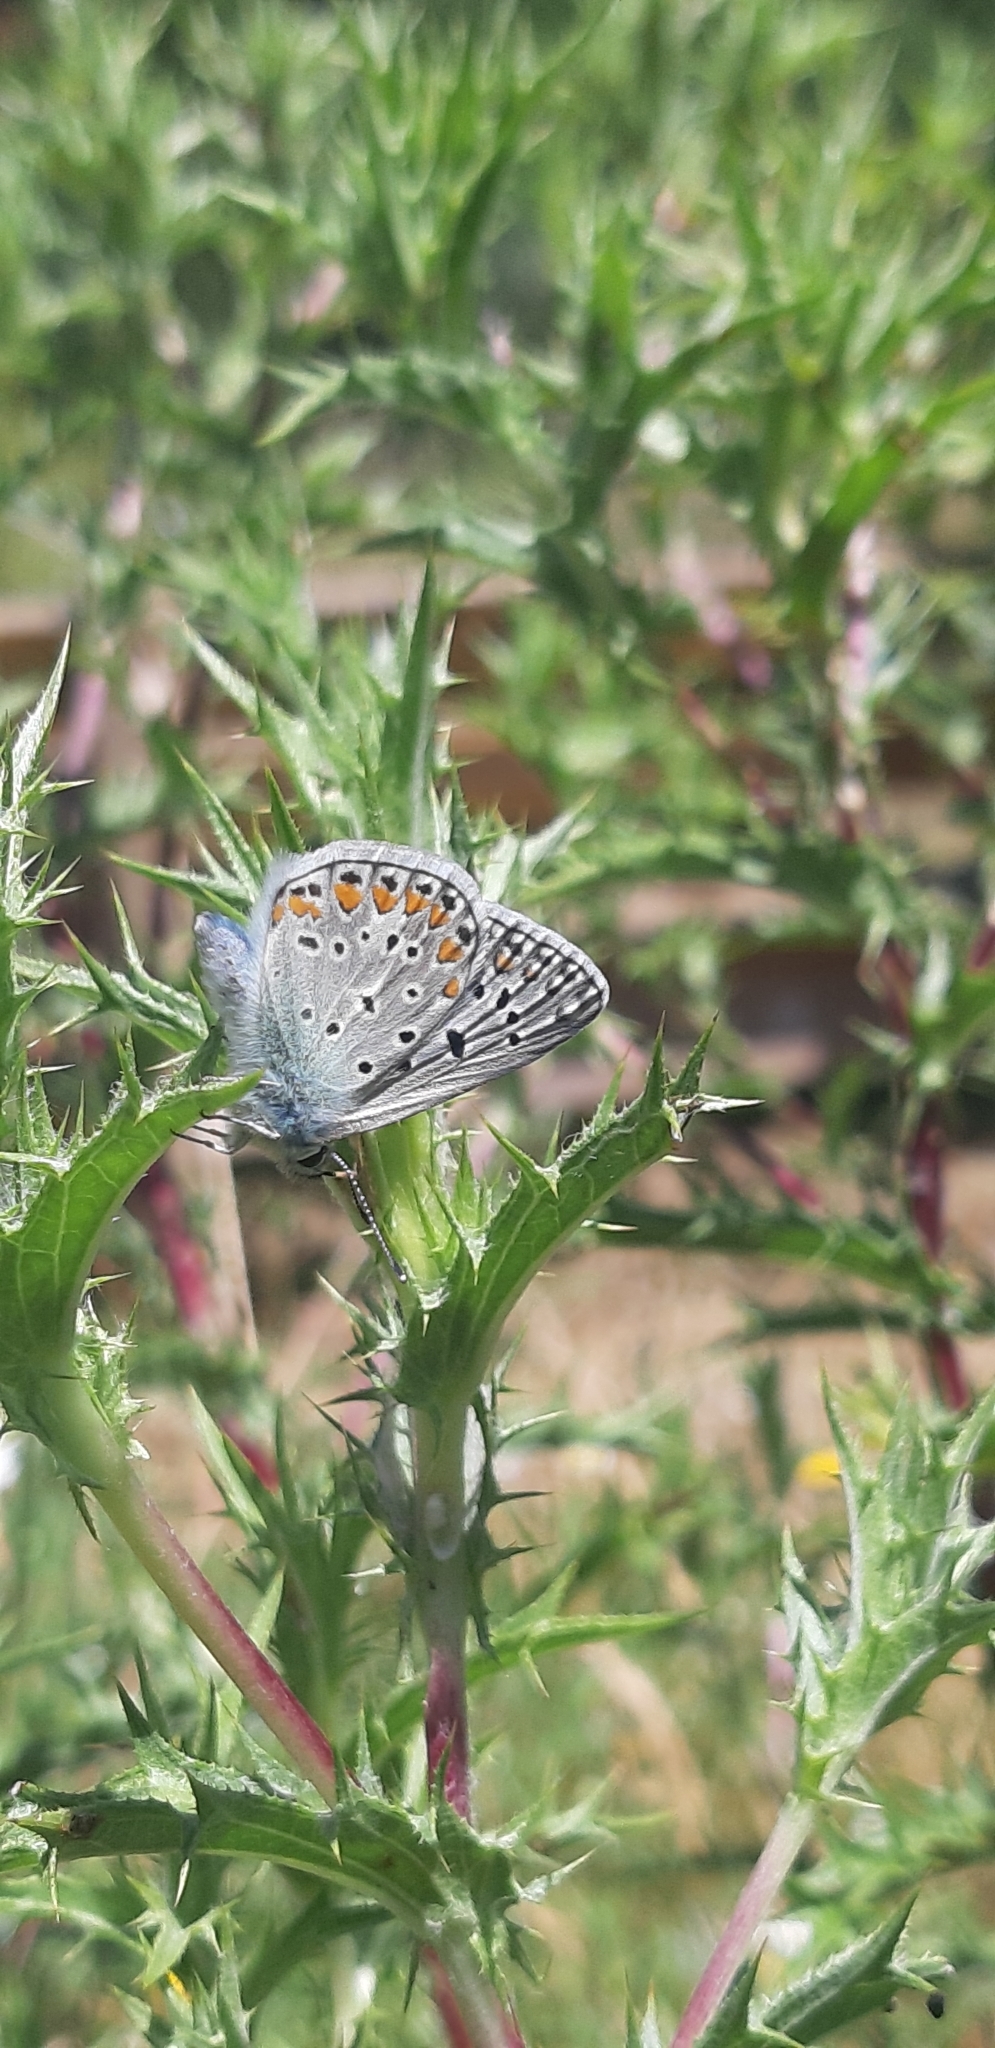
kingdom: Animalia
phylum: Arthropoda
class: Insecta
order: Lepidoptera
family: Lycaenidae
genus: Polyommatus
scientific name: Polyommatus icarus
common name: Common blue
